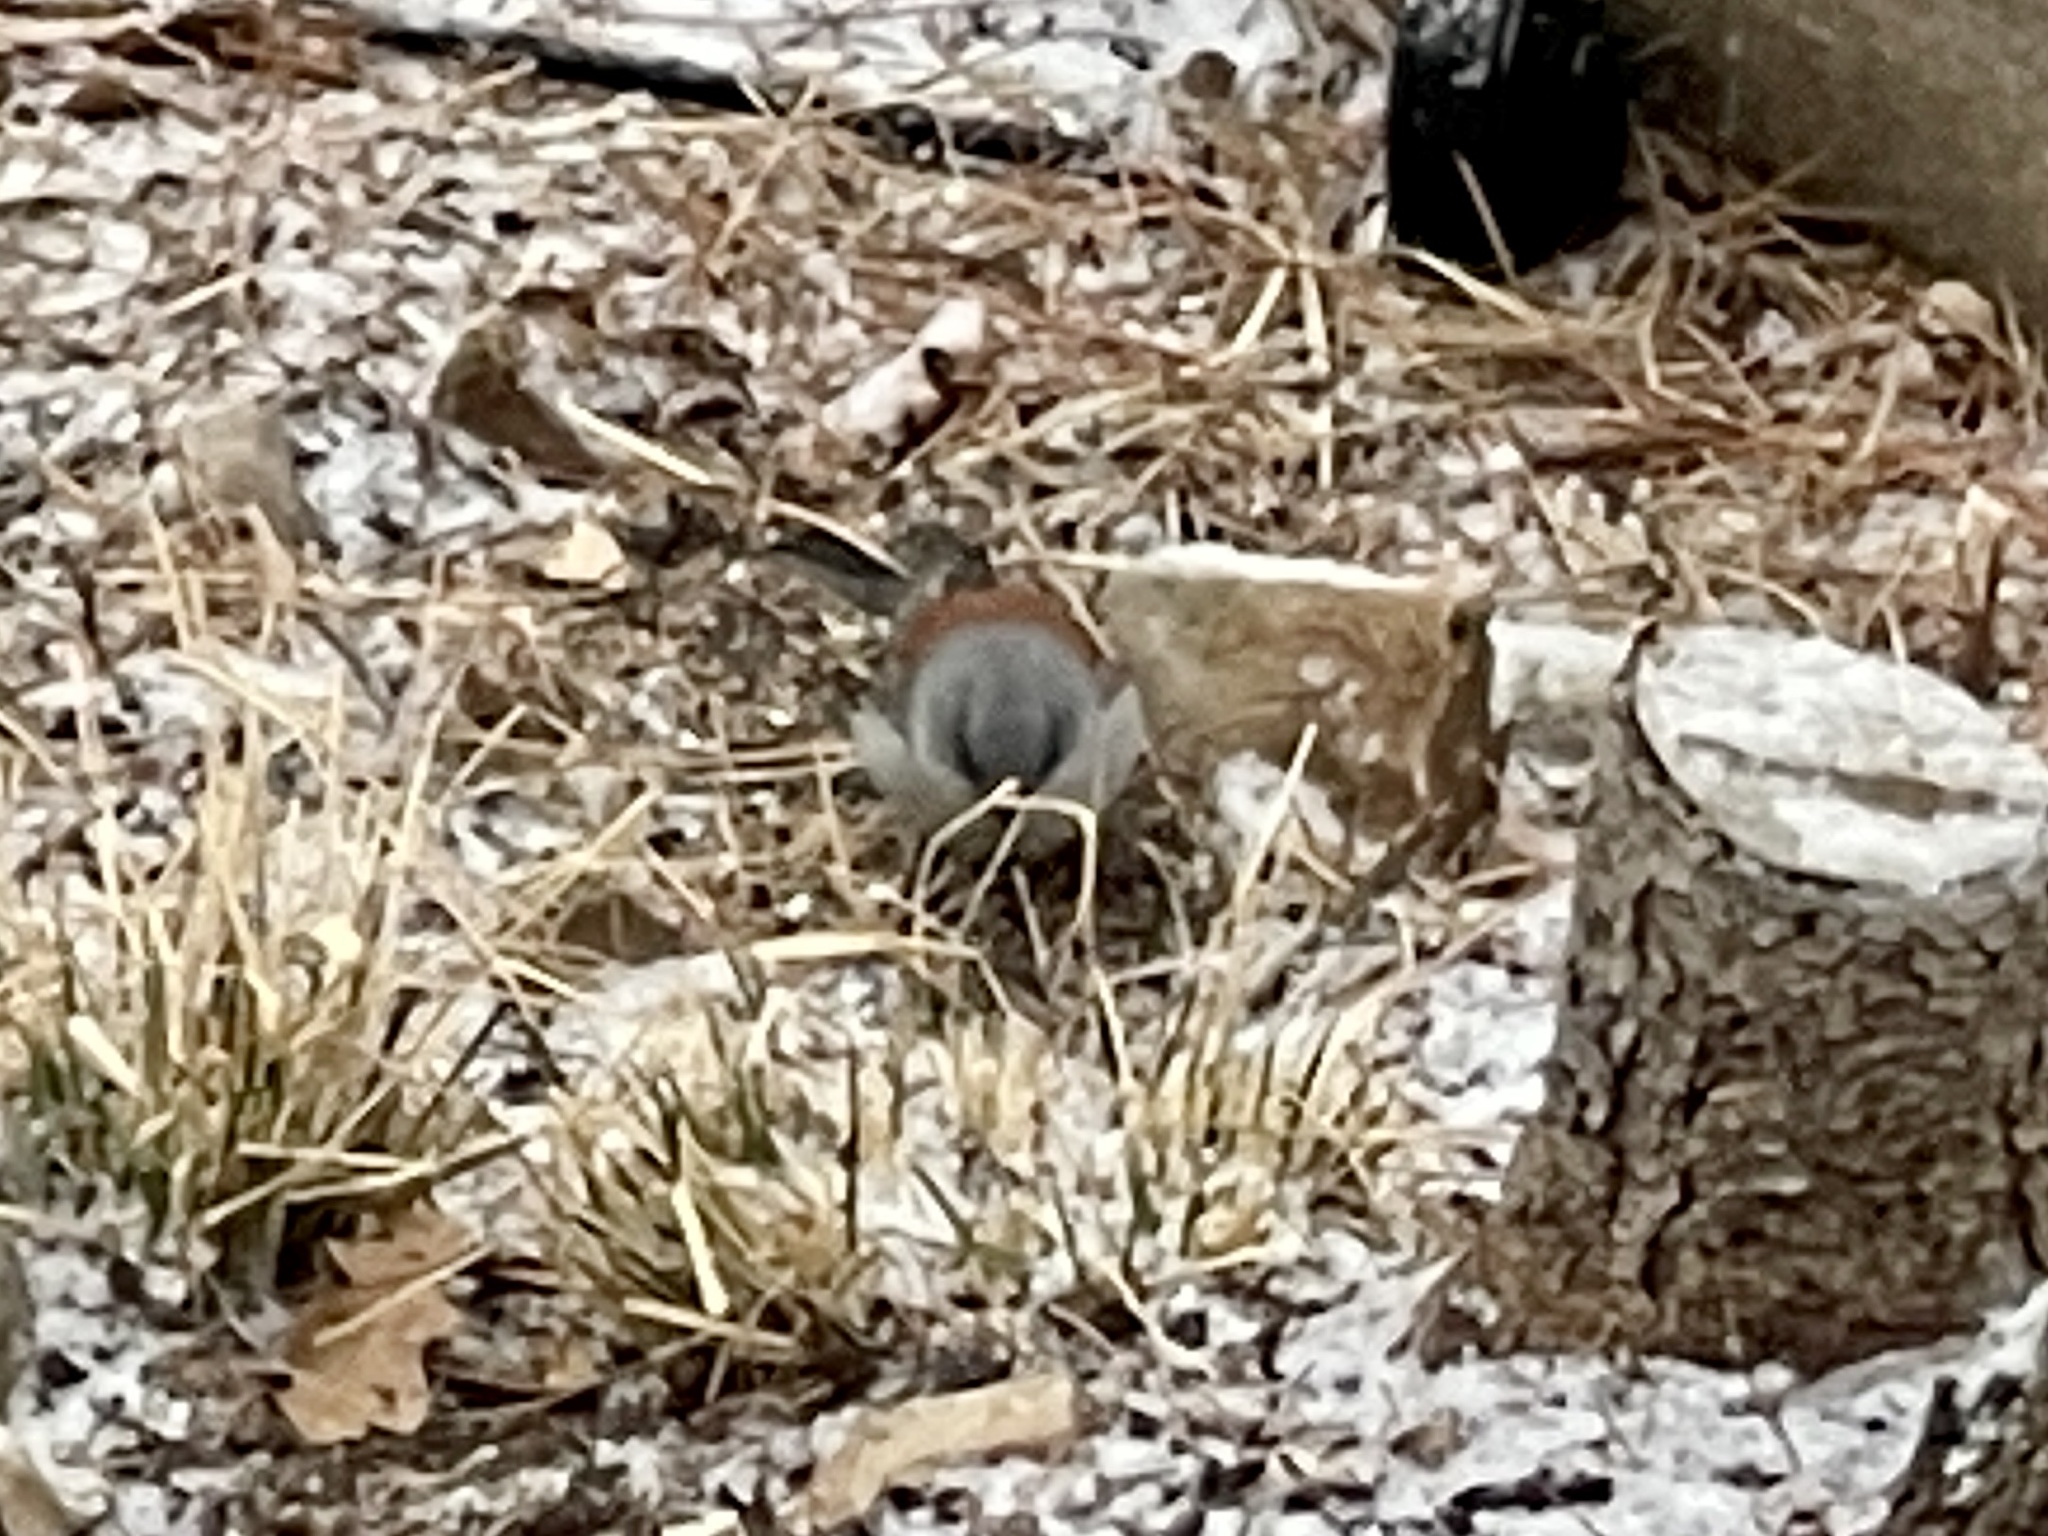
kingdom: Animalia
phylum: Chordata
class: Aves
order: Passeriformes
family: Passerellidae
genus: Junco
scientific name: Junco hyemalis
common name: Dark-eyed junco
